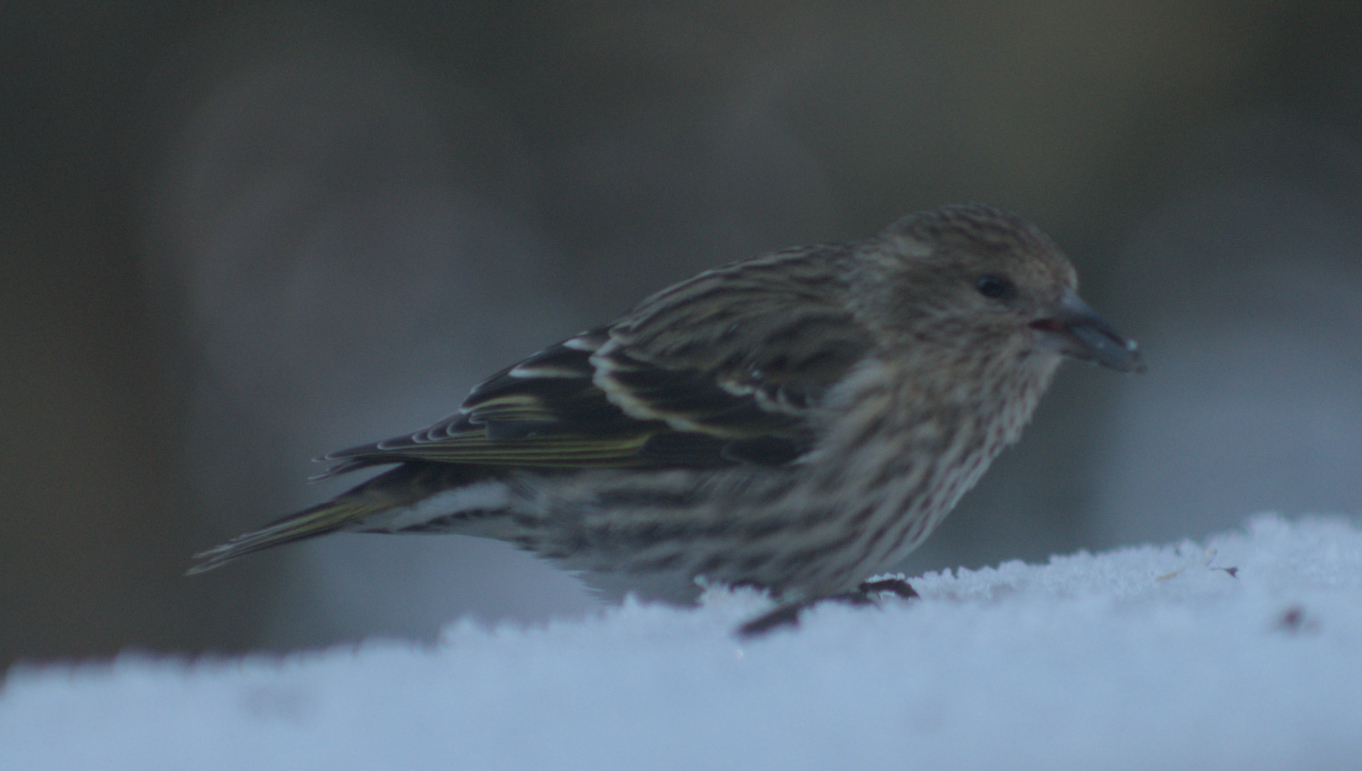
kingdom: Animalia
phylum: Chordata
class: Aves
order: Passeriformes
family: Fringillidae
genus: Spinus
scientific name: Spinus pinus
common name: Pine siskin
